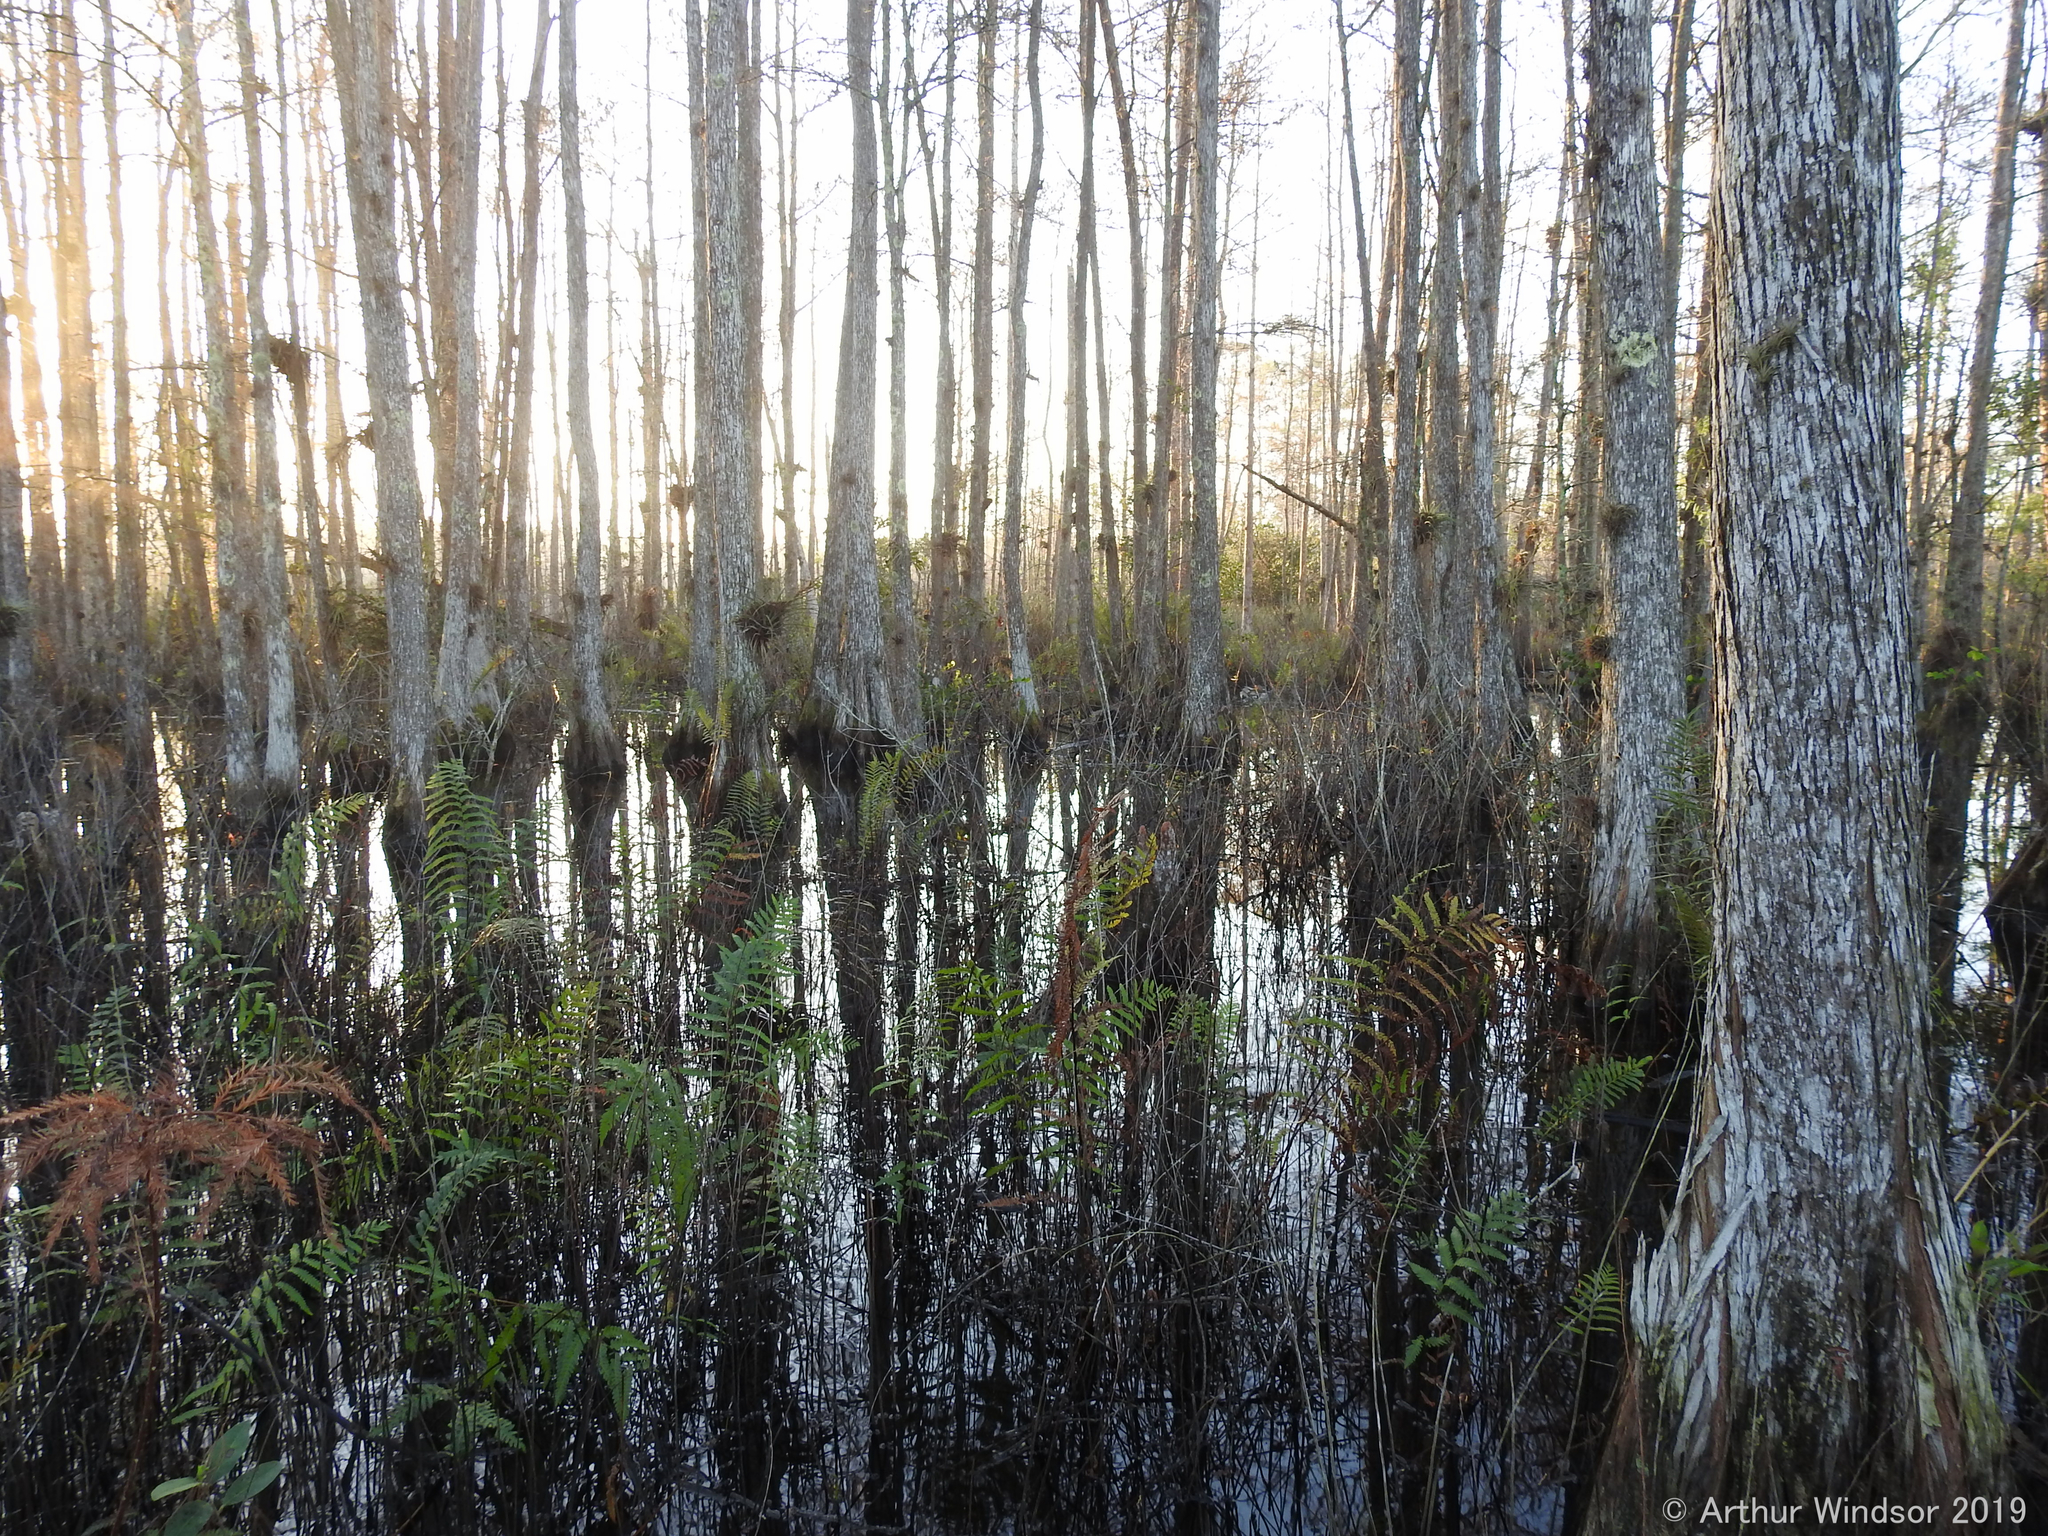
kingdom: Plantae
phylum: Tracheophyta
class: Pinopsida
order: Pinales
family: Cupressaceae
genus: Taxodium
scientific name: Taxodium distichum
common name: Bald cypress
